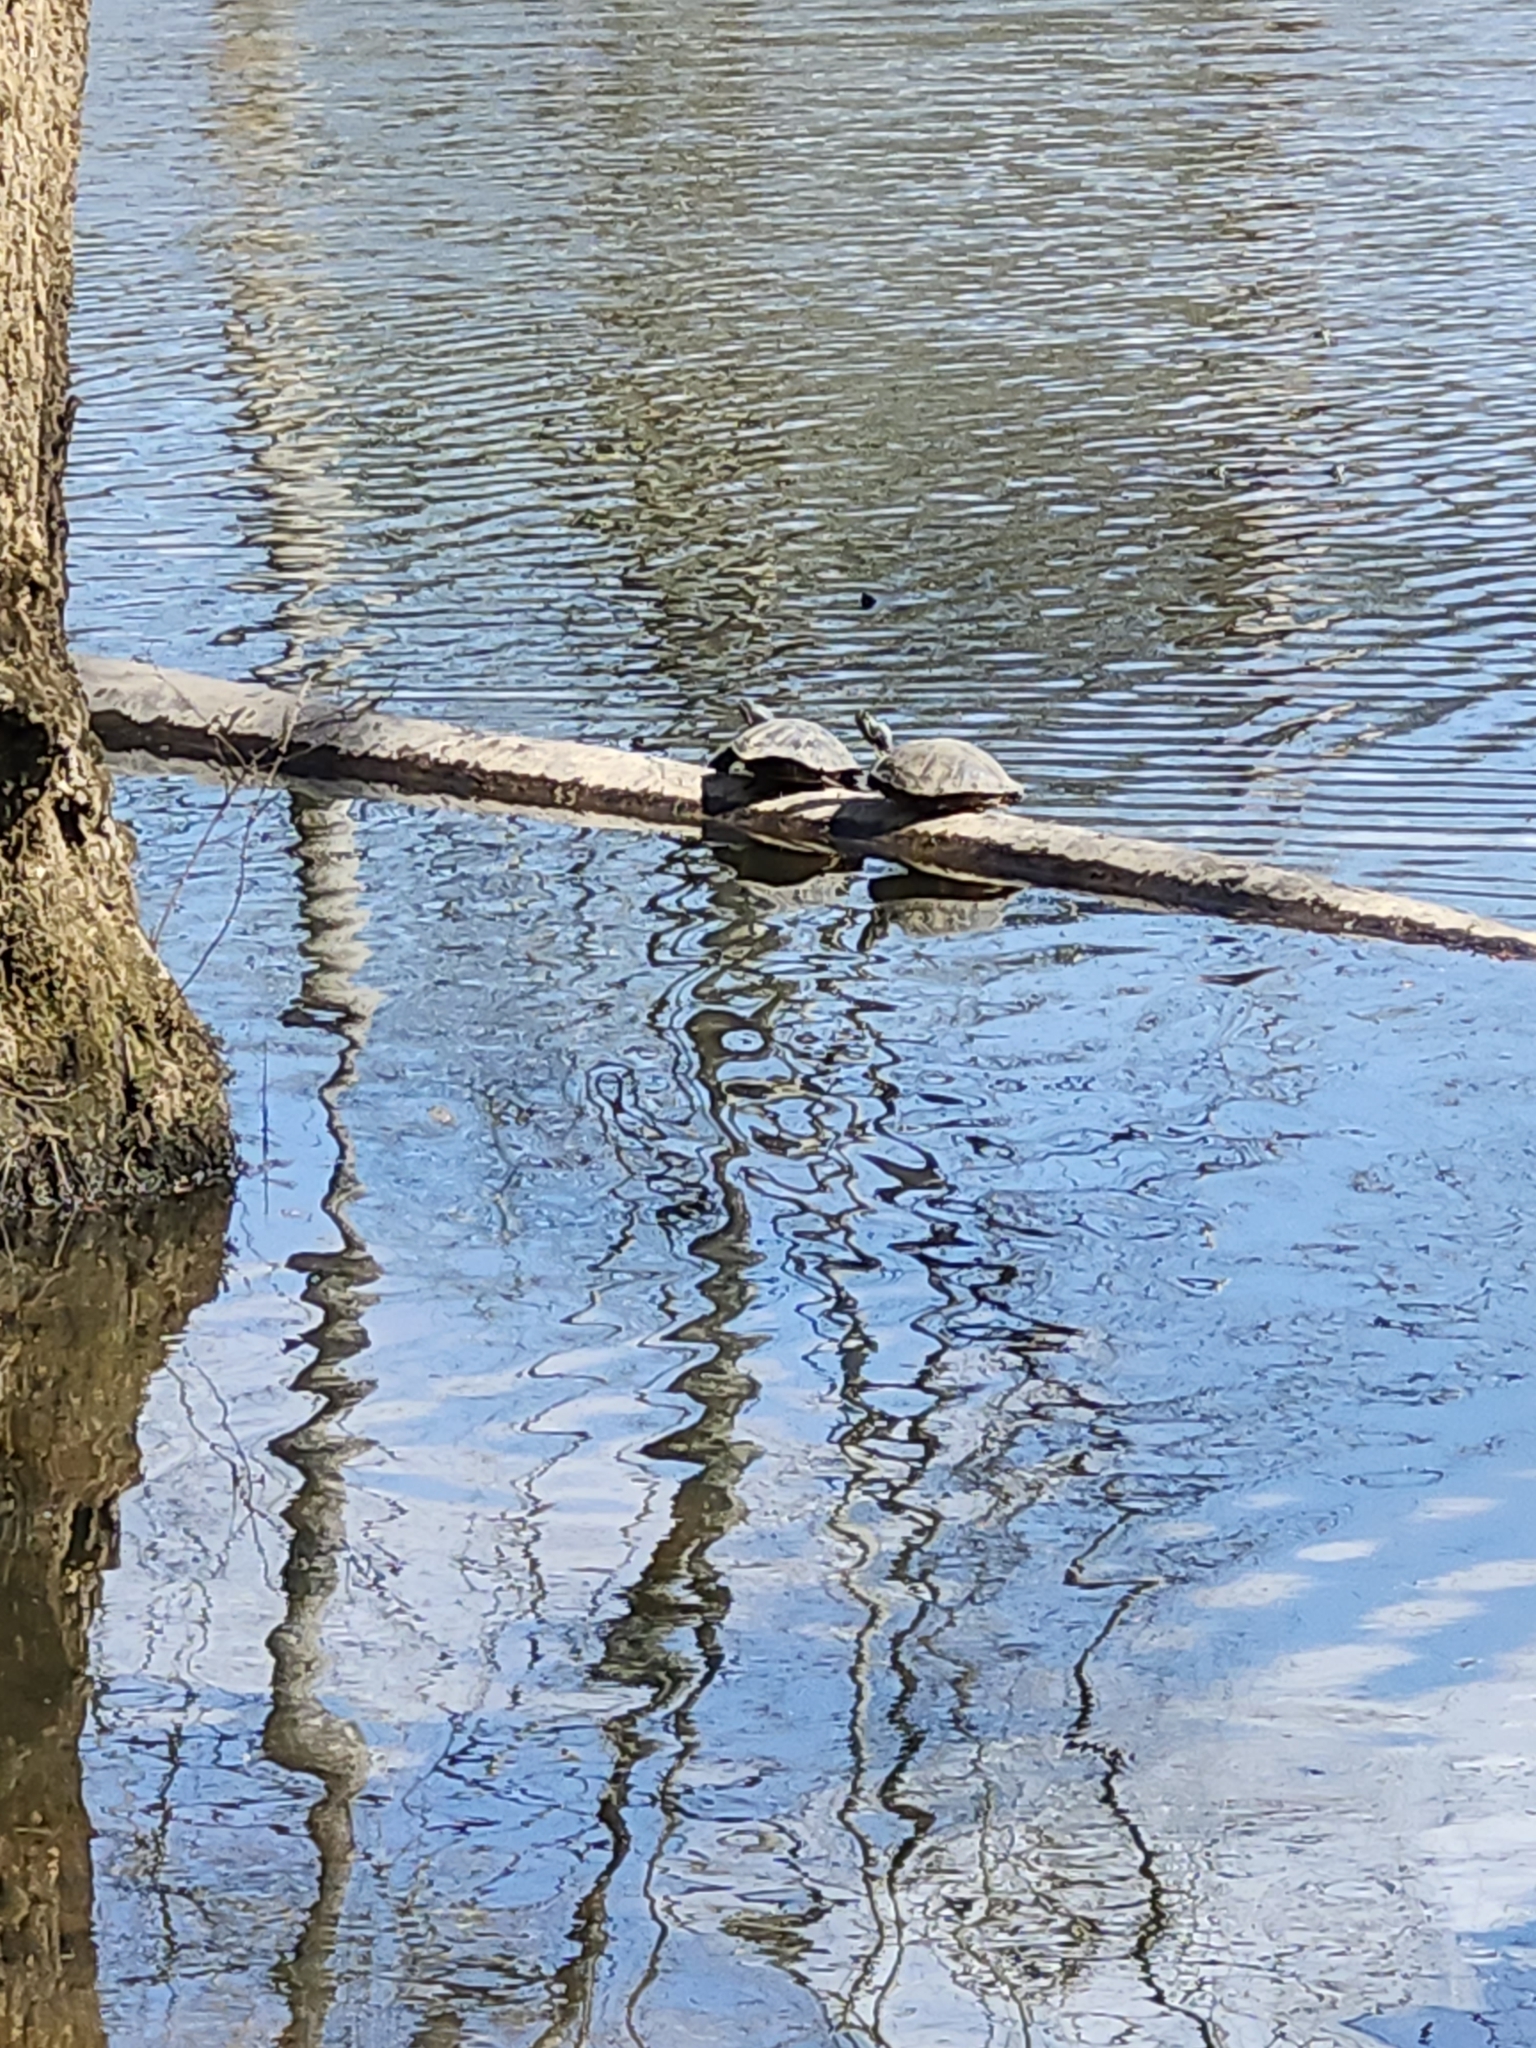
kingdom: Animalia
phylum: Chordata
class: Testudines
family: Emydidae
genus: Trachemys
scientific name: Trachemys scripta
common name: Slider
